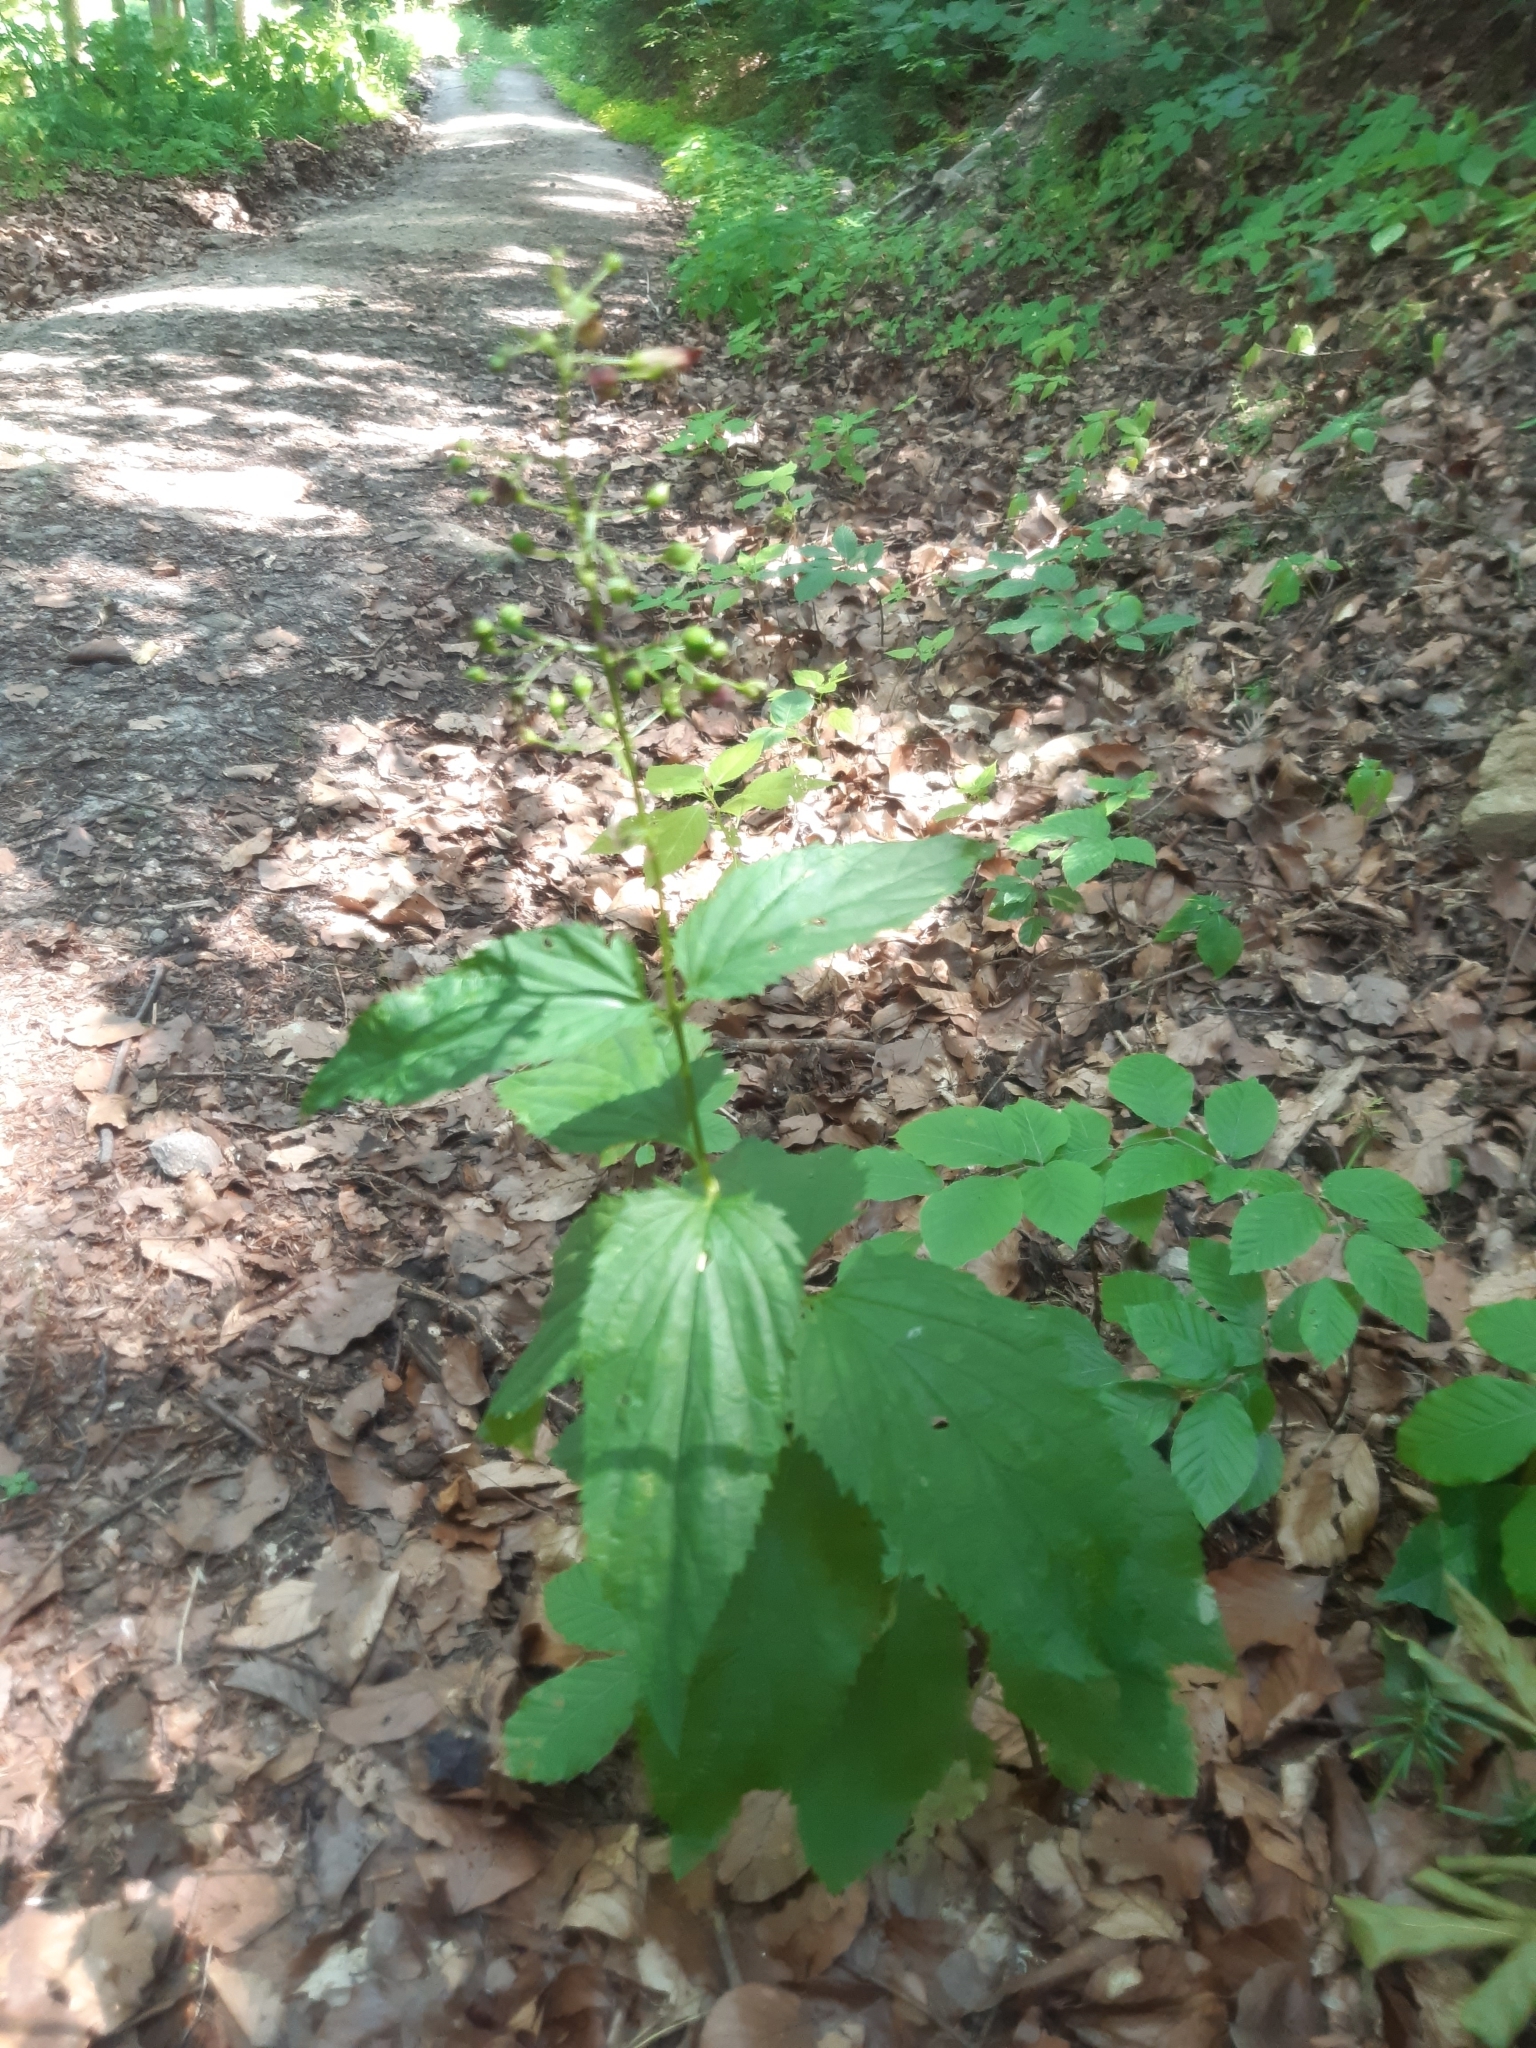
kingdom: Plantae
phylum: Tracheophyta
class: Magnoliopsida
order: Lamiales
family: Scrophulariaceae
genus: Scrophularia
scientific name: Scrophularia nodosa
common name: Common figwort
